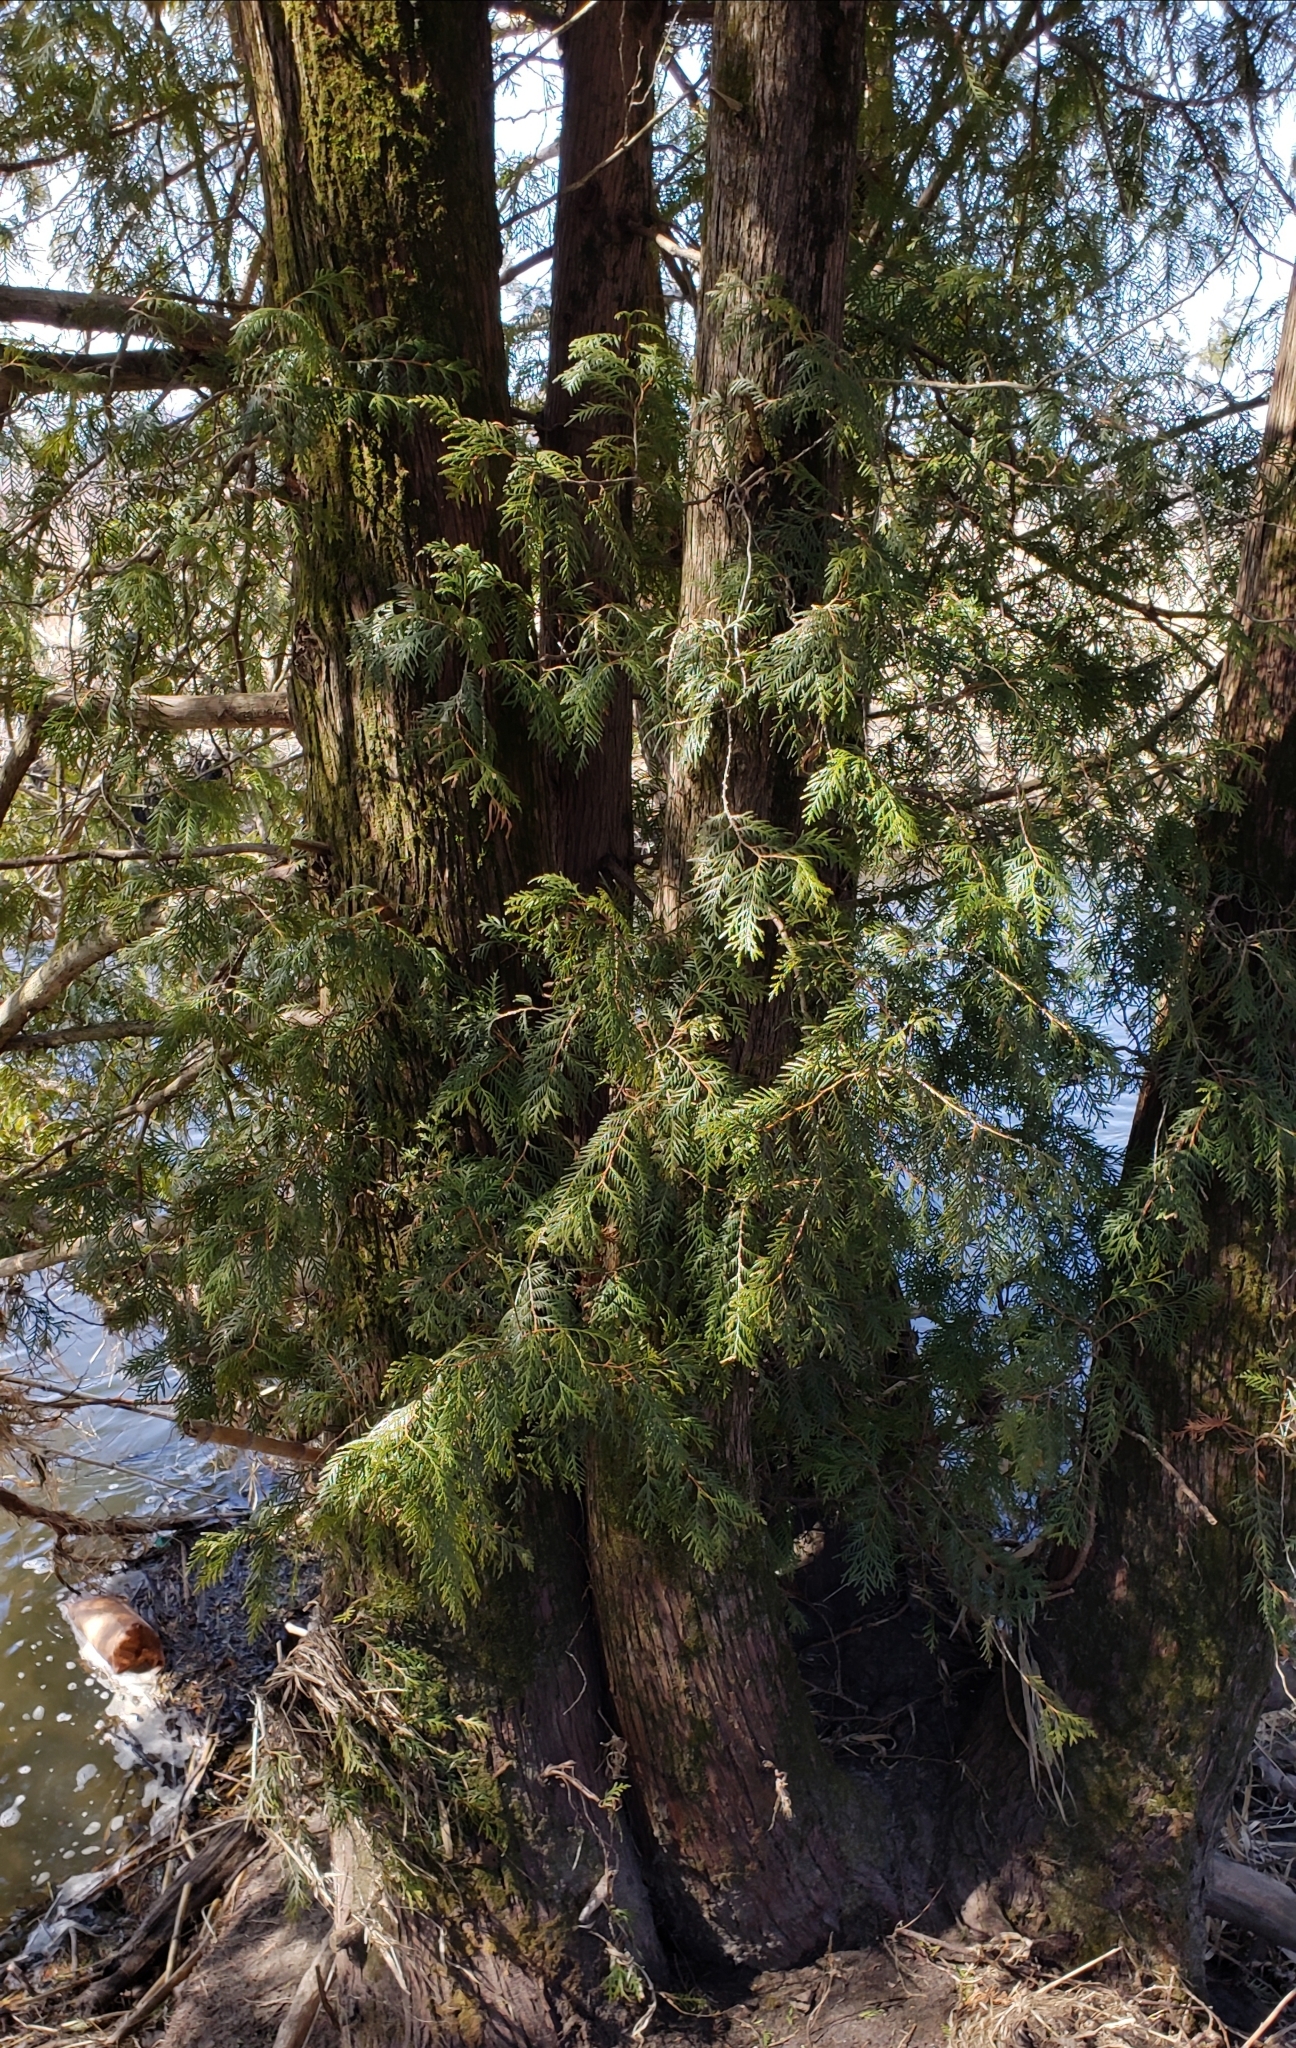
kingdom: Plantae
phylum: Tracheophyta
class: Pinopsida
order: Pinales
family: Cupressaceae
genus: Thuja
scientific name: Thuja occidentalis
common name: Northern white-cedar
